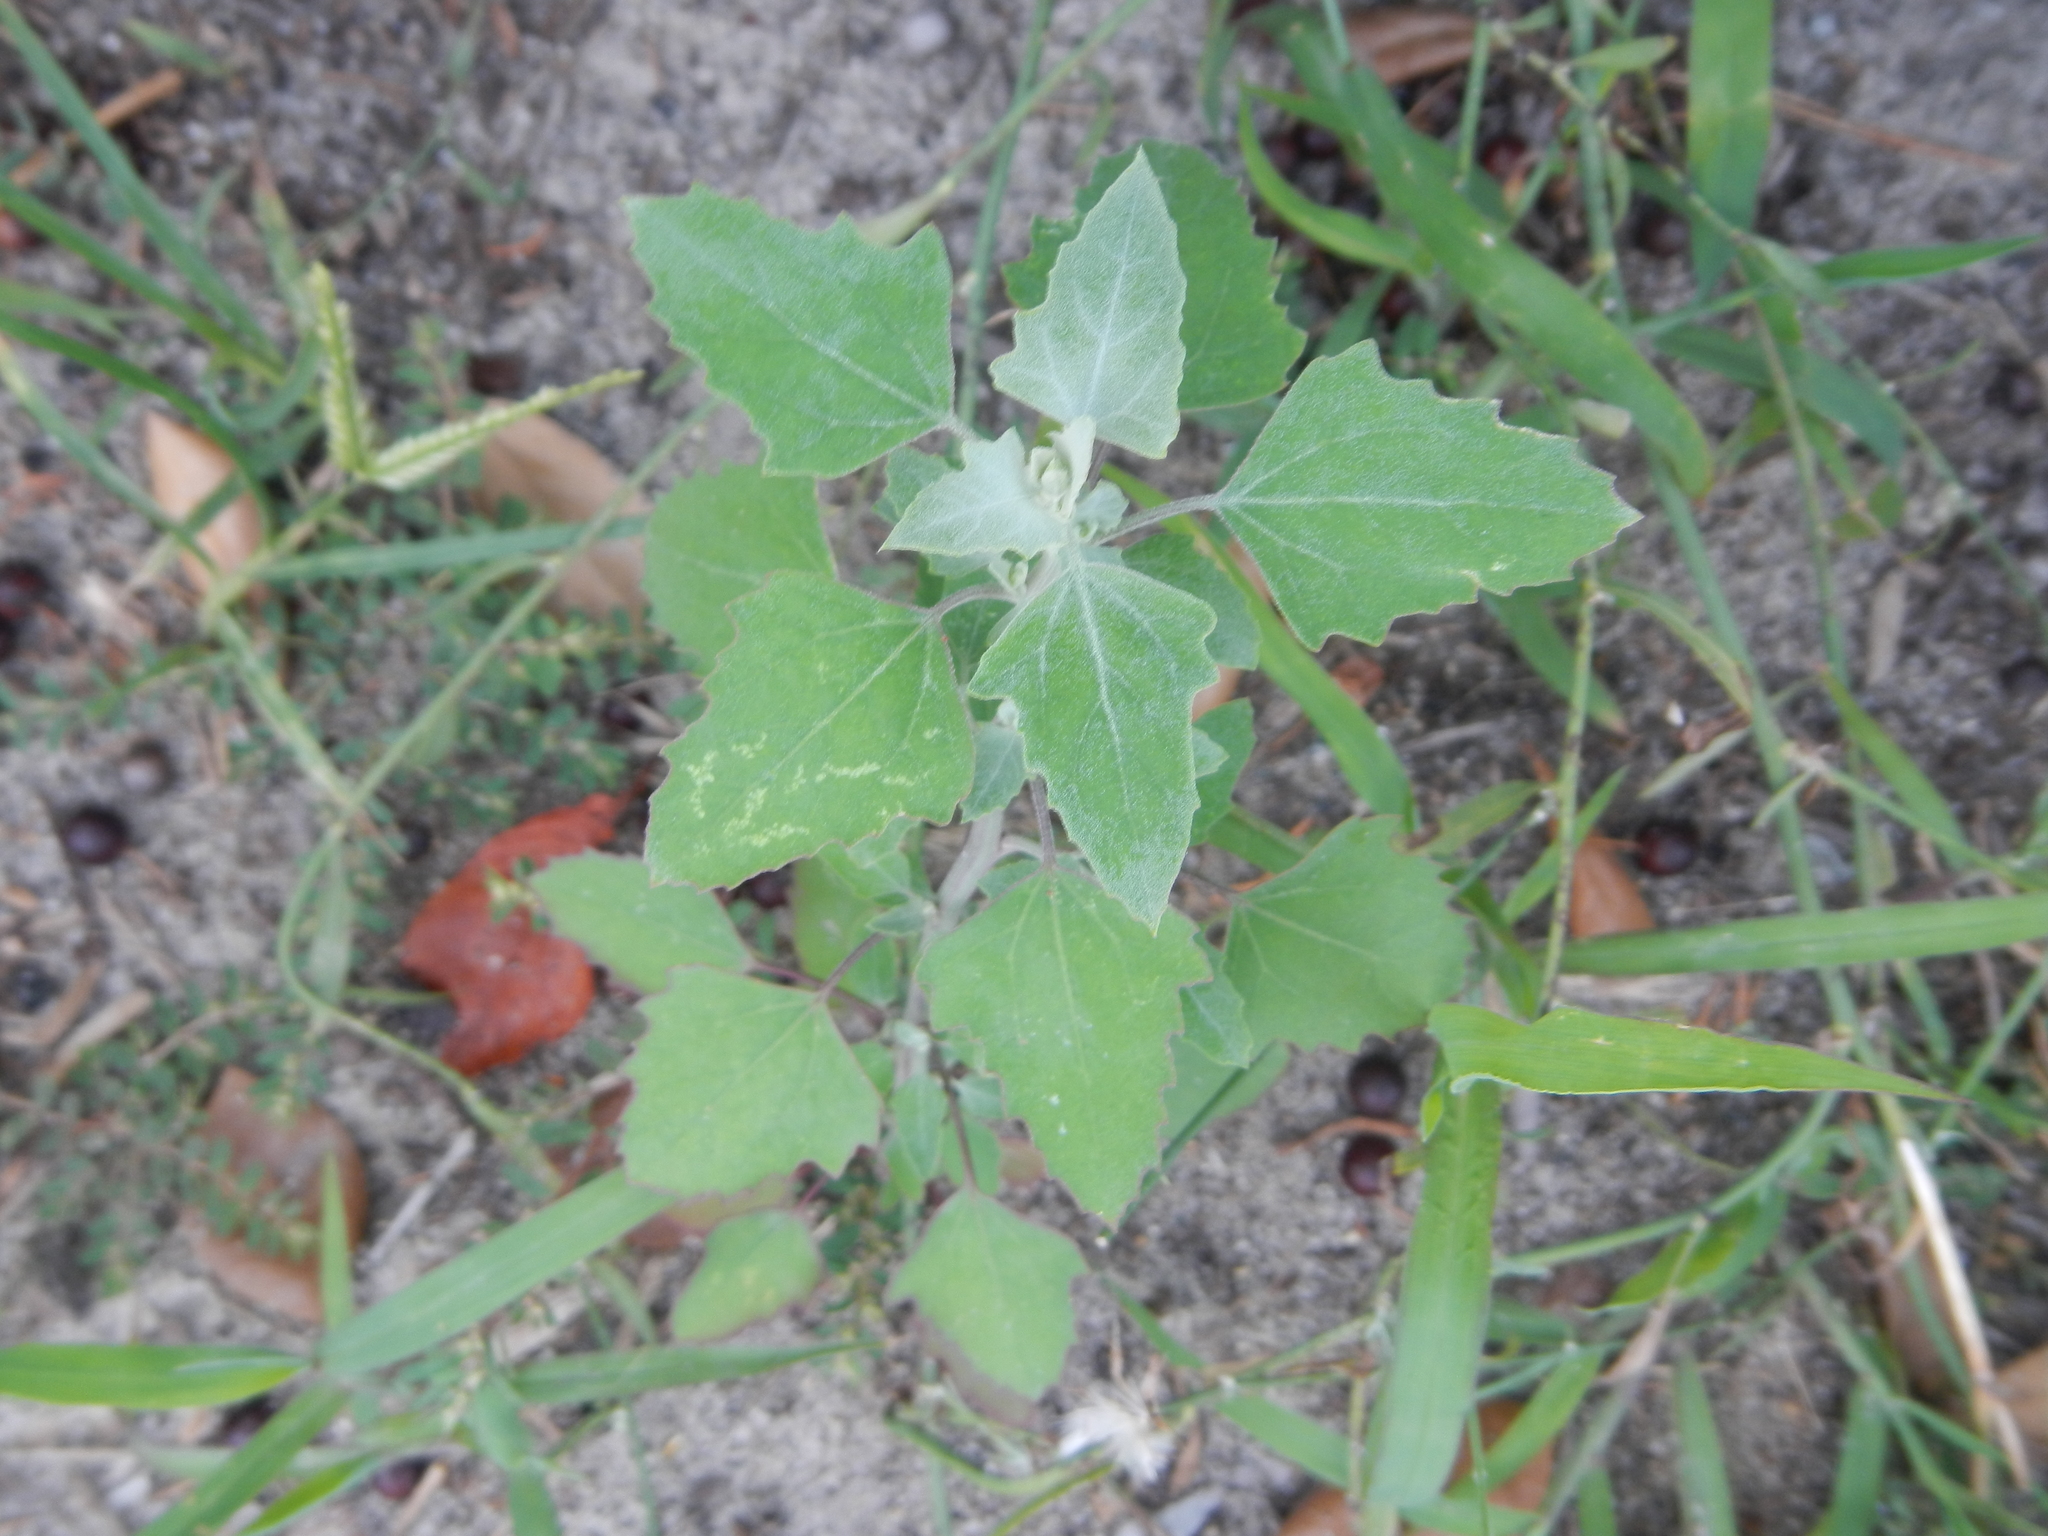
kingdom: Plantae
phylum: Tracheophyta
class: Magnoliopsida
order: Caryophyllales
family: Amaranthaceae
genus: Chenopodium
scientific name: Chenopodium album
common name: Fat-hen
